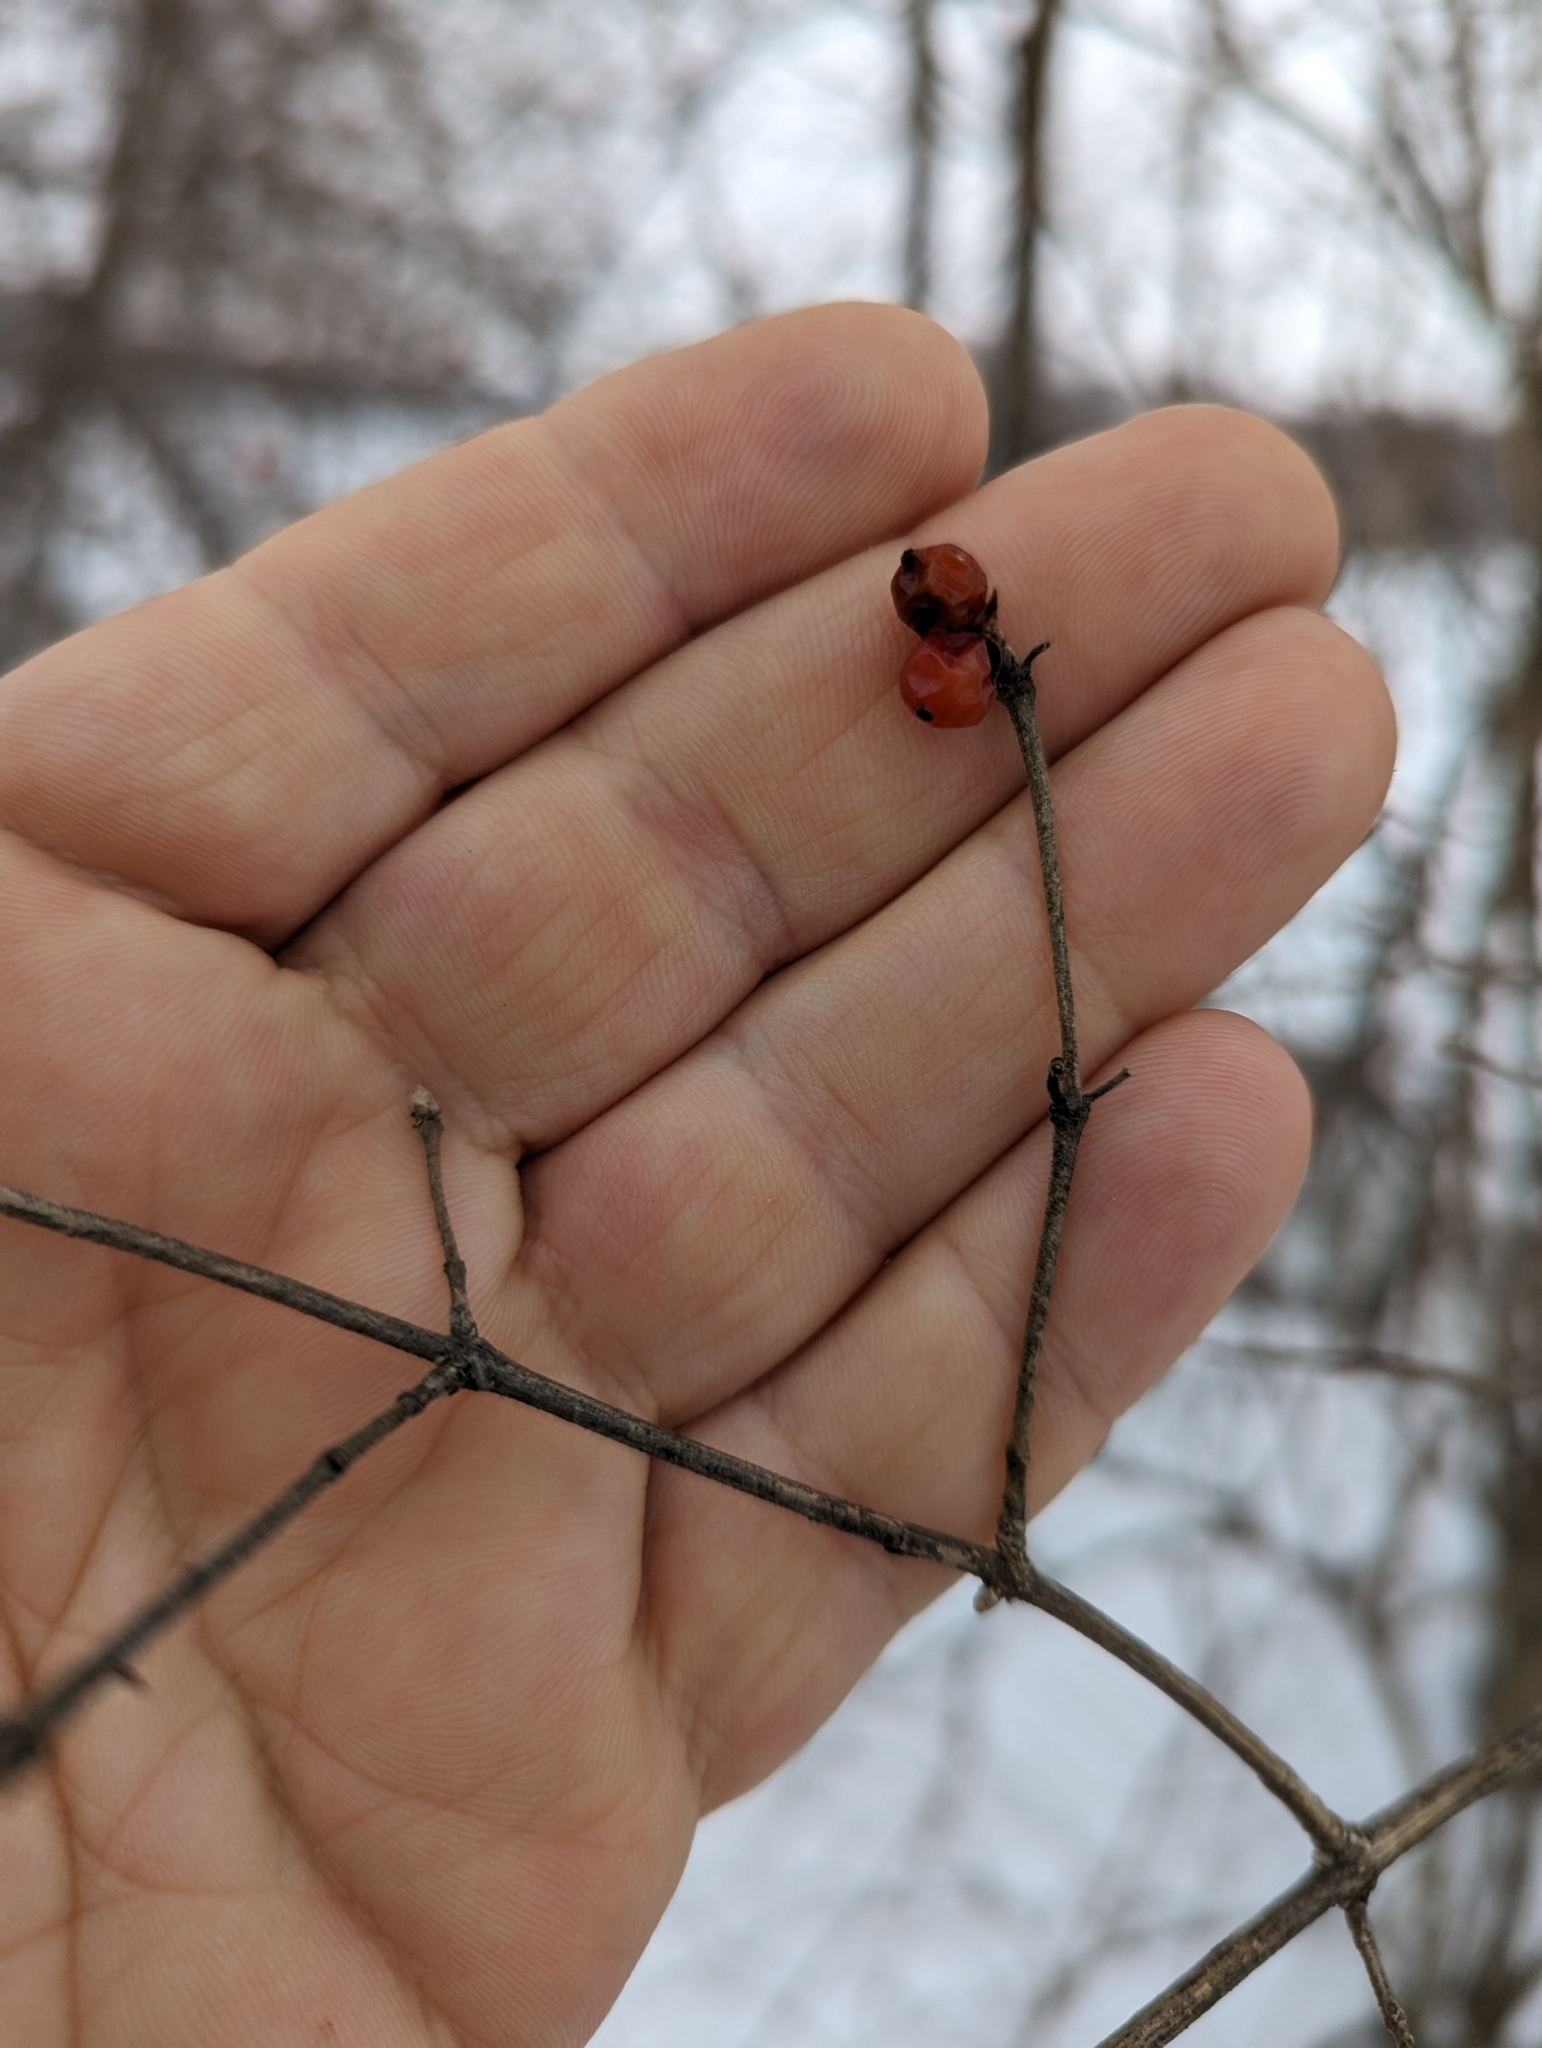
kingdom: Plantae
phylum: Tracheophyta
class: Magnoliopsida
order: Dipsacales
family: Caprifoliaceae
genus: Lonicera
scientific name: Lonicera maackii
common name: Amur honeysuckle
